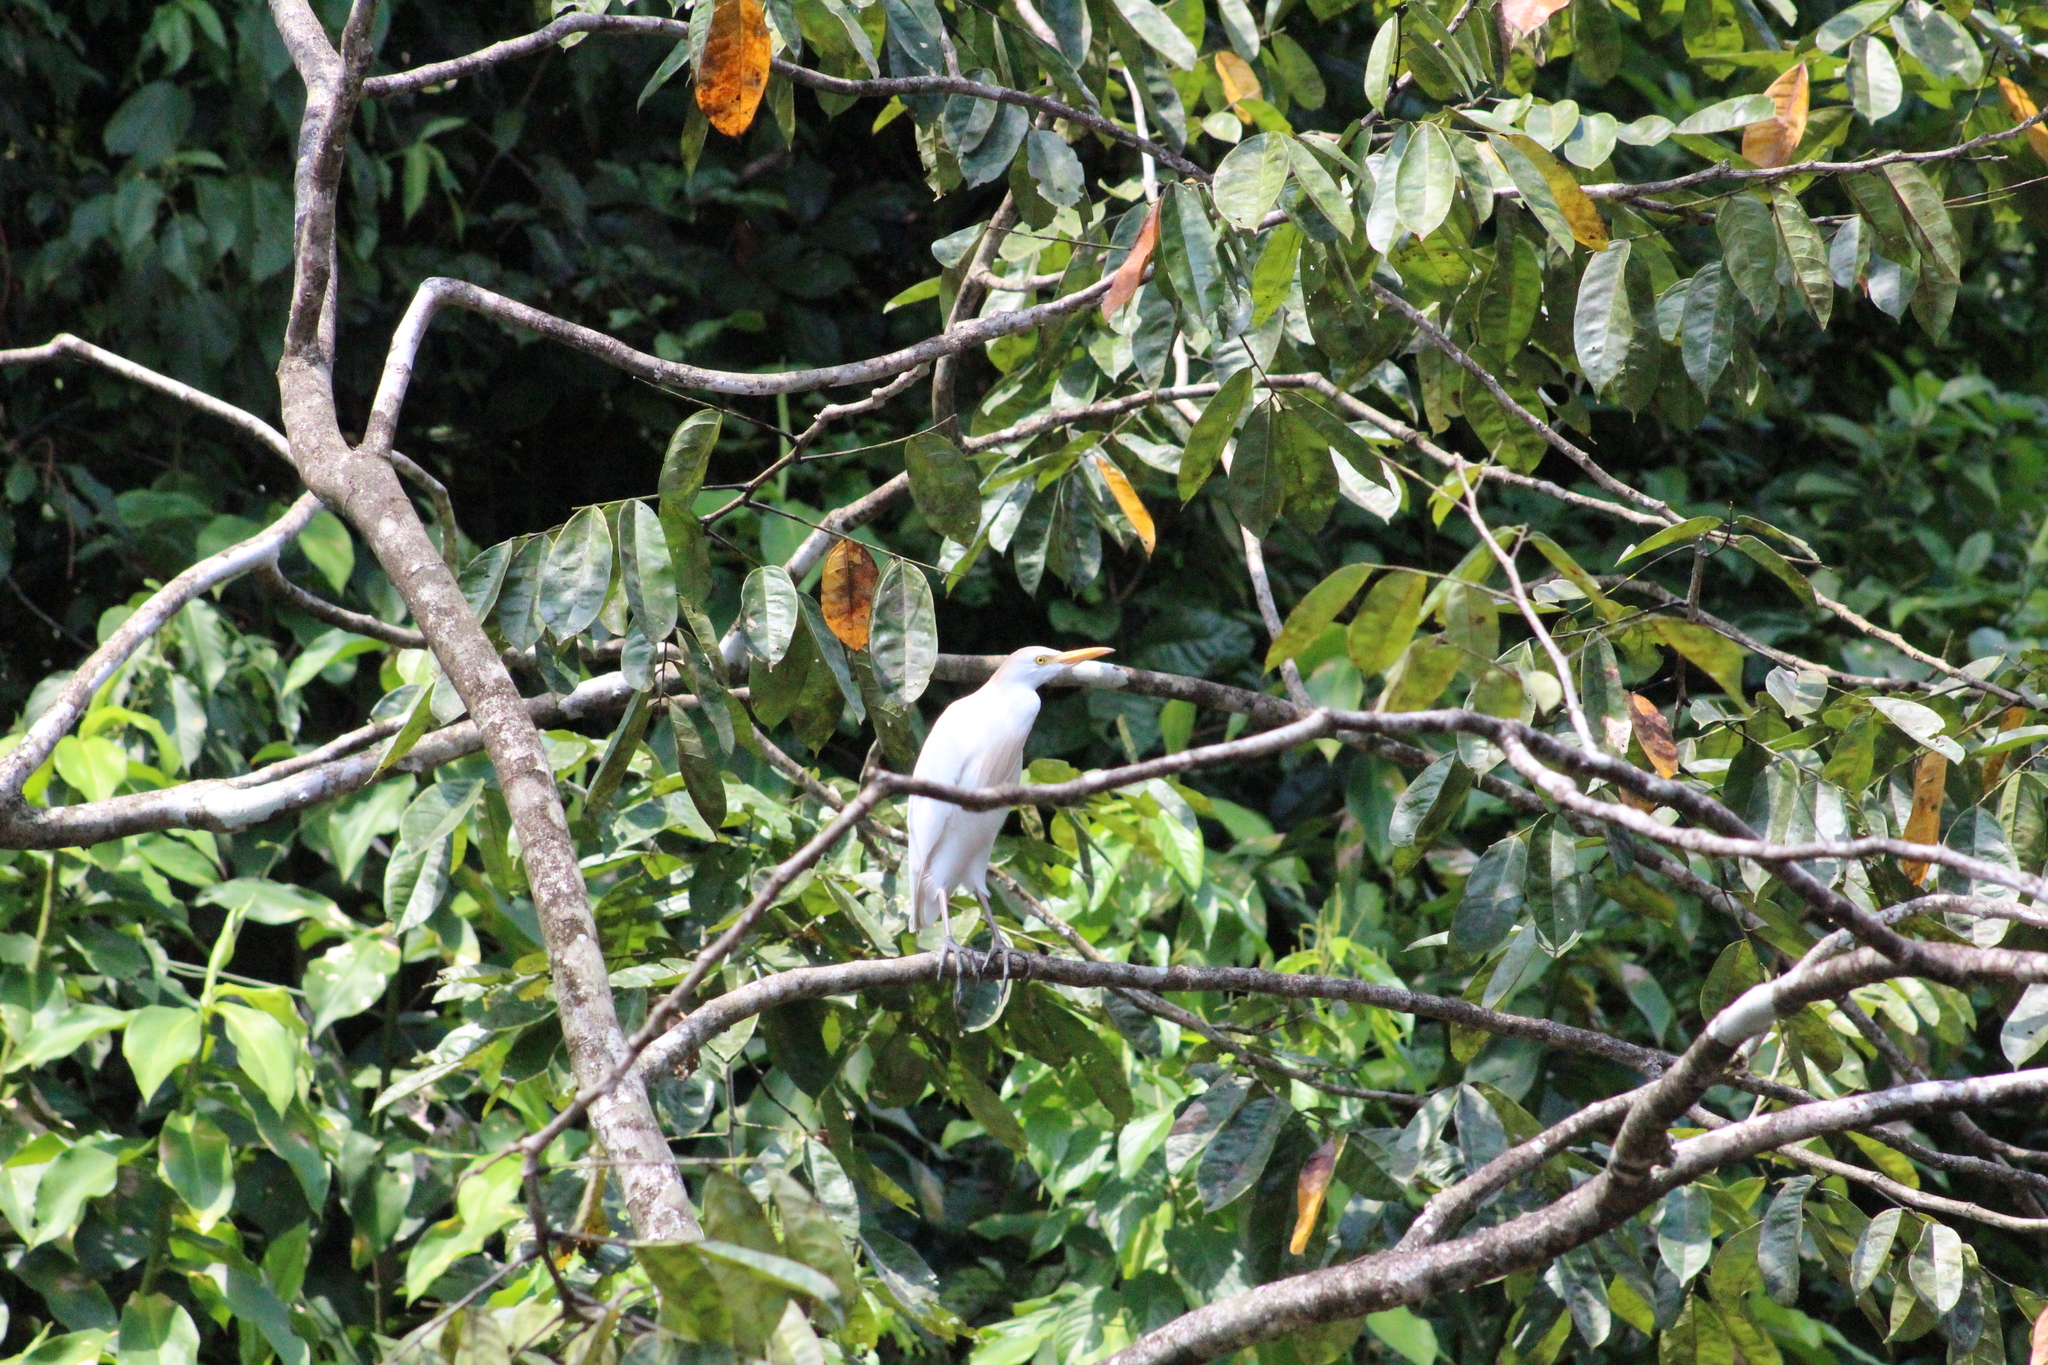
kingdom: Animalia
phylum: Chordata
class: Aves
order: Pelecaniformes
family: Ardeidae
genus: Bubulcus
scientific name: Bubulcus ibis
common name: Cattle egret
